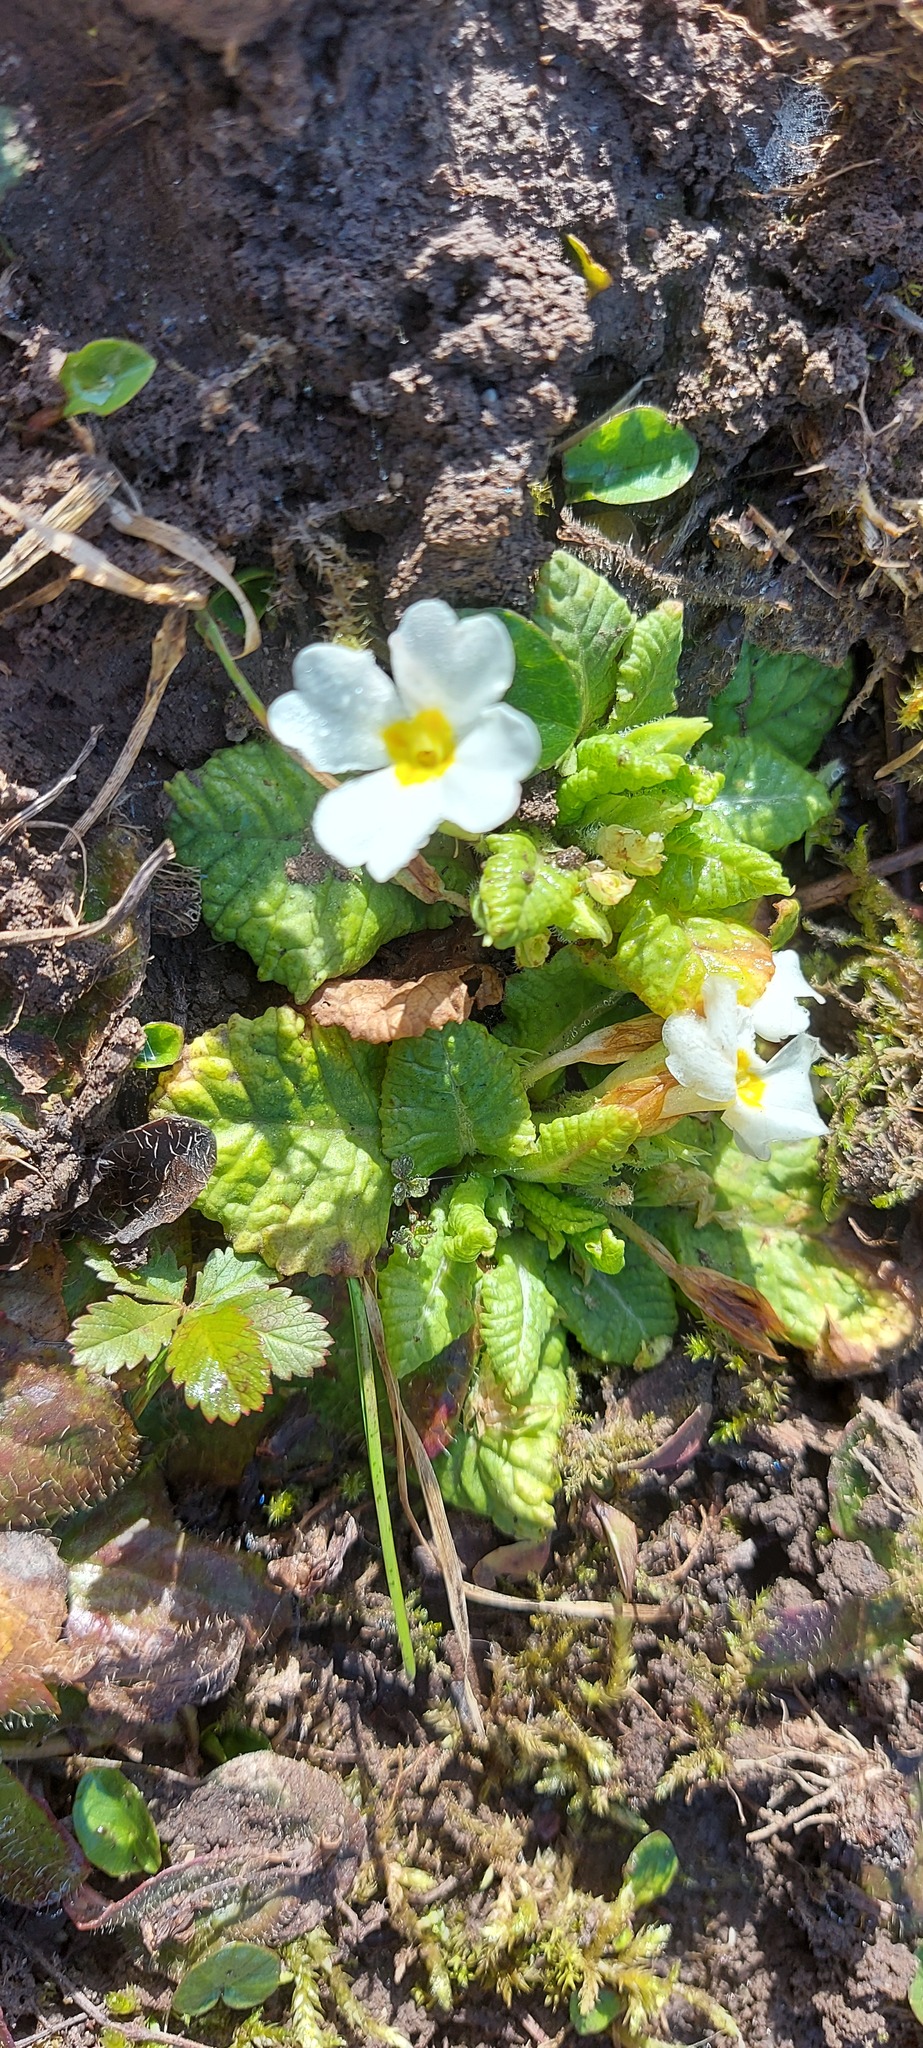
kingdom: Plantae
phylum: Tracheophyta
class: Magnoliopsida
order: Ericales
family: Primulaceae
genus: Primula
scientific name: Primula vulgaris
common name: Primrose
